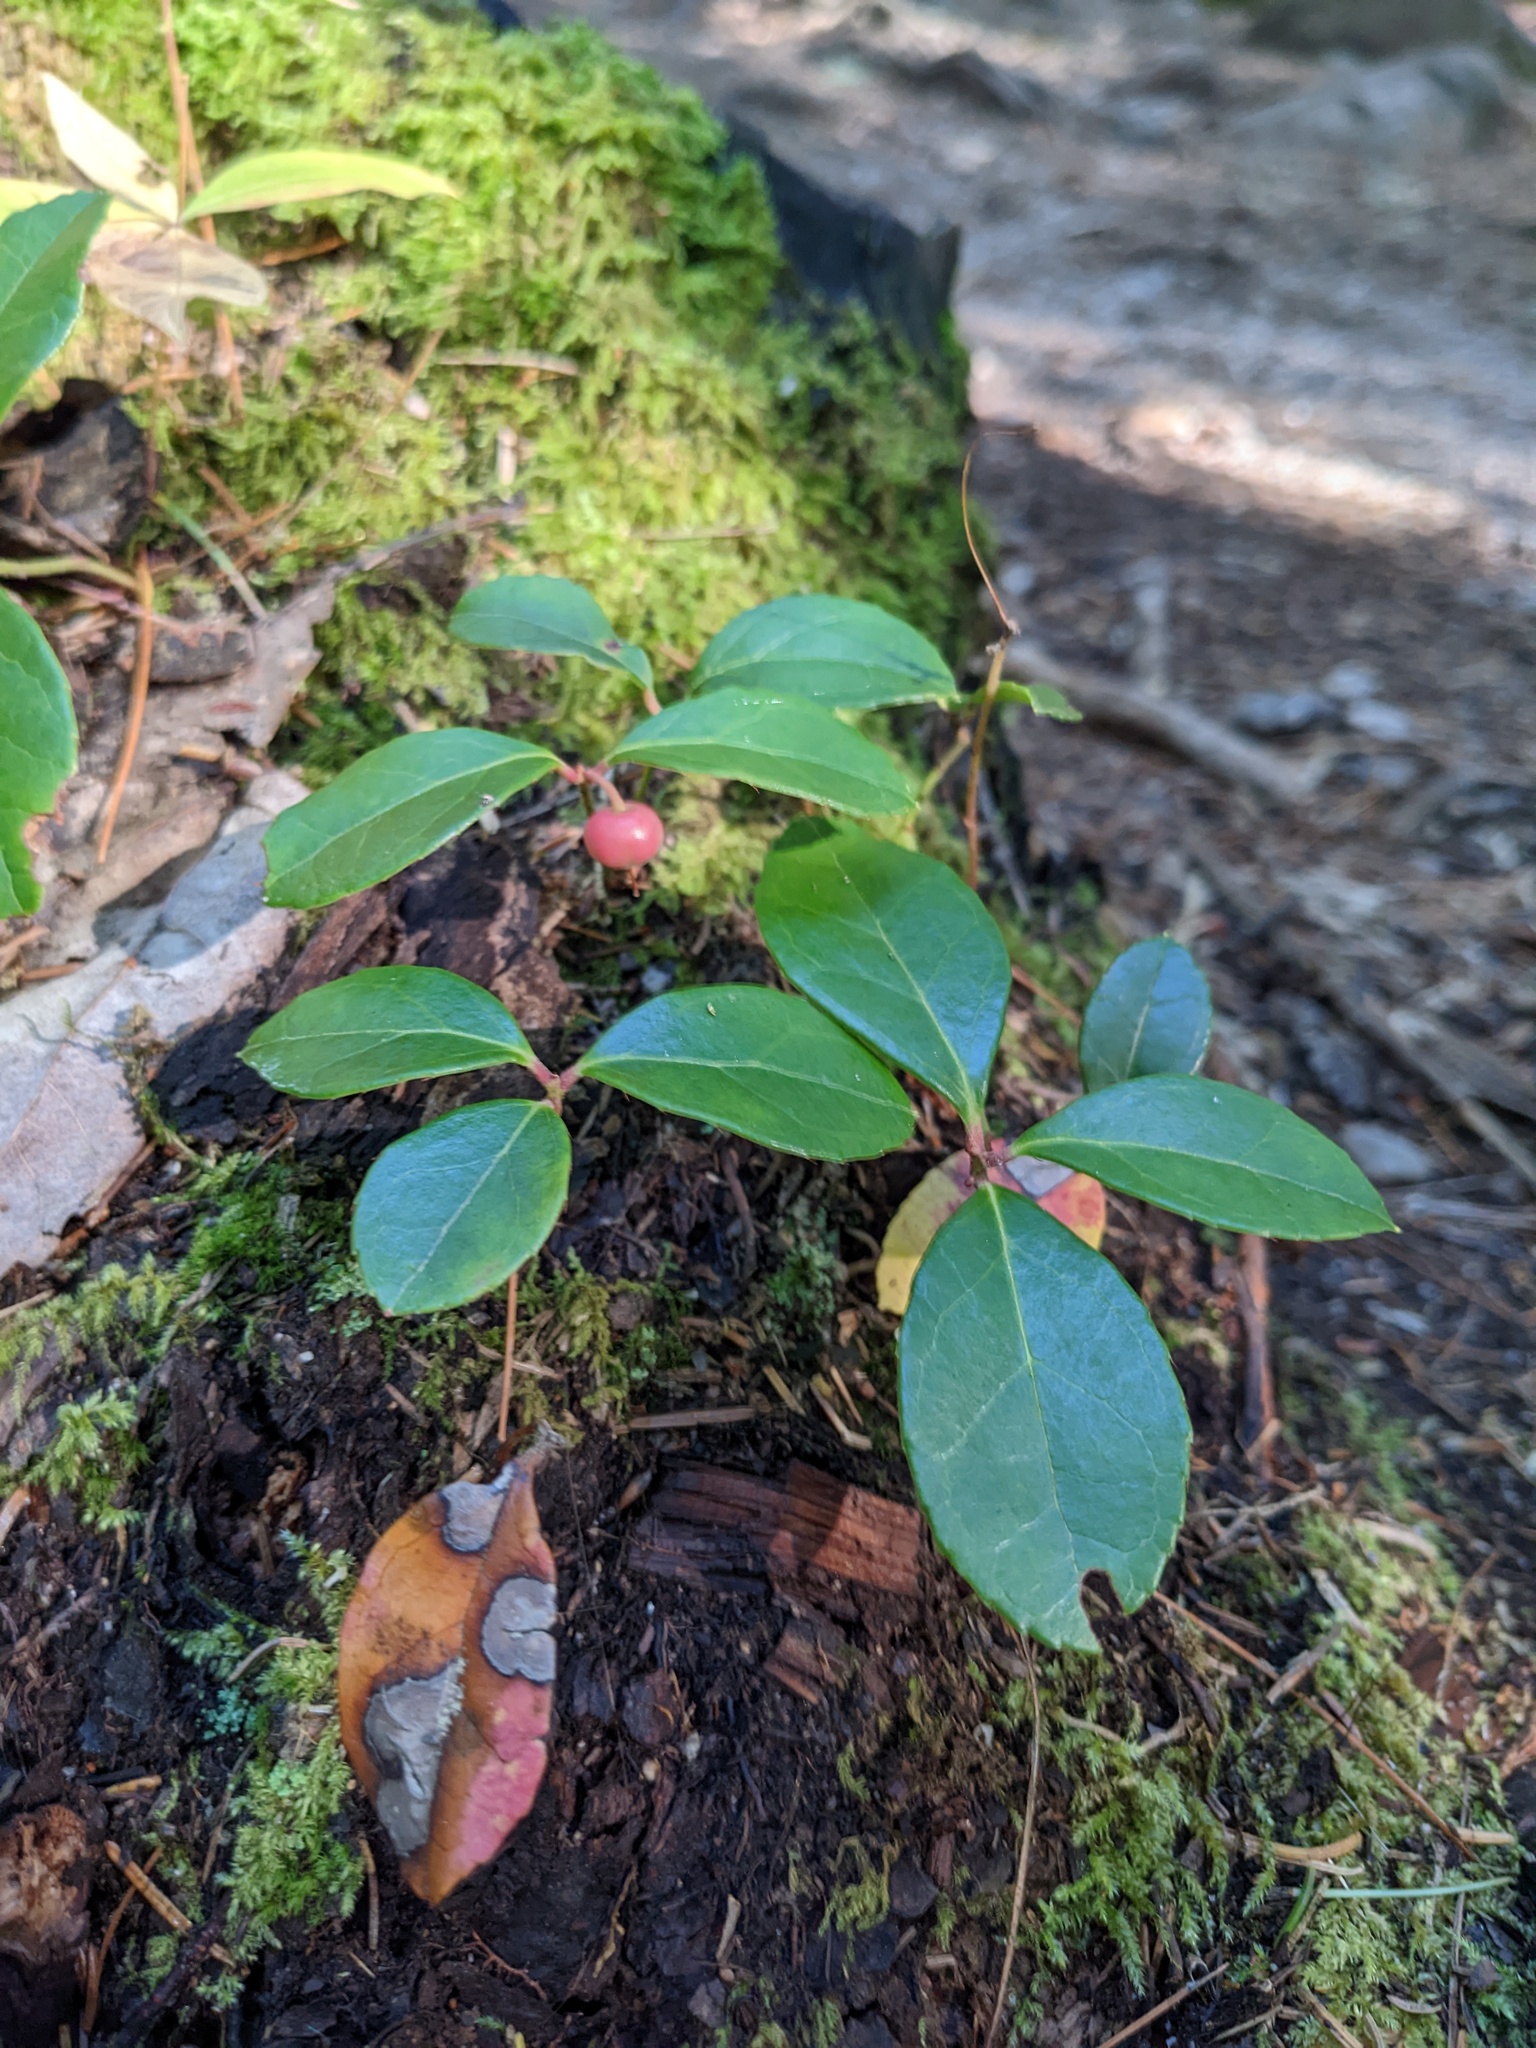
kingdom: Plantae
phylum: Tracheophyta
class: Magnoliopsida
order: Ericales
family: Ericaceae
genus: Gaultheria
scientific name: Gaultheria procumbens
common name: Checkerberry
